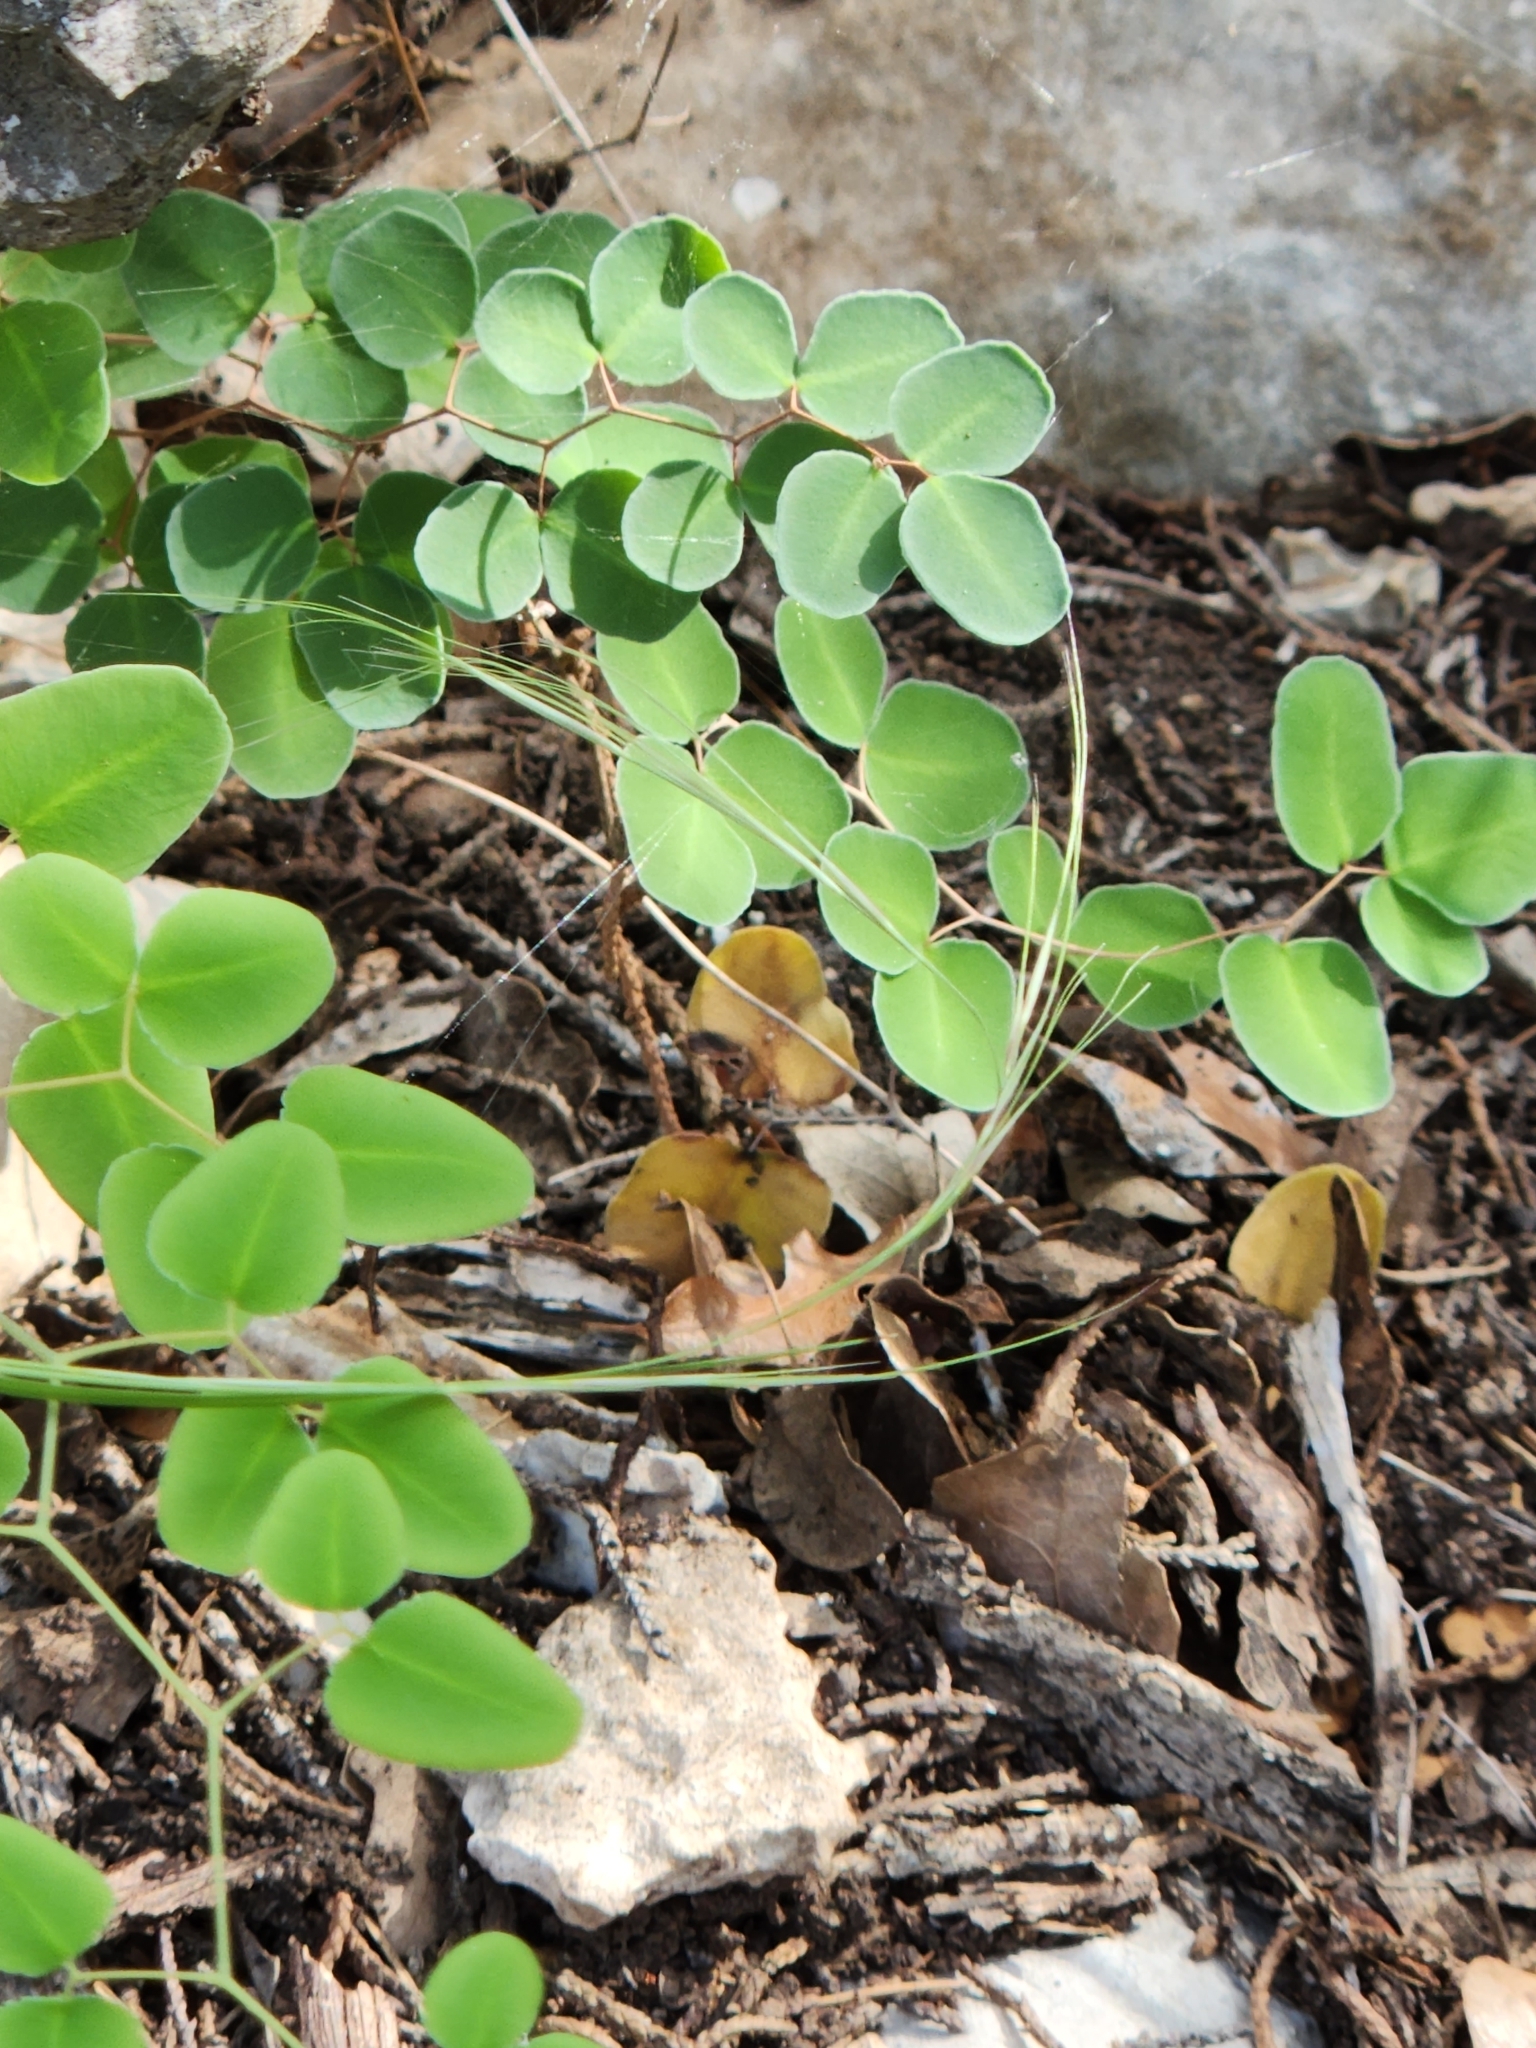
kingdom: Plantae
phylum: Tracheophyta
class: Polypodiopsida
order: Polypodiales
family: Pteridaceae
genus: Pellaea
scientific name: Pellaea ovata
